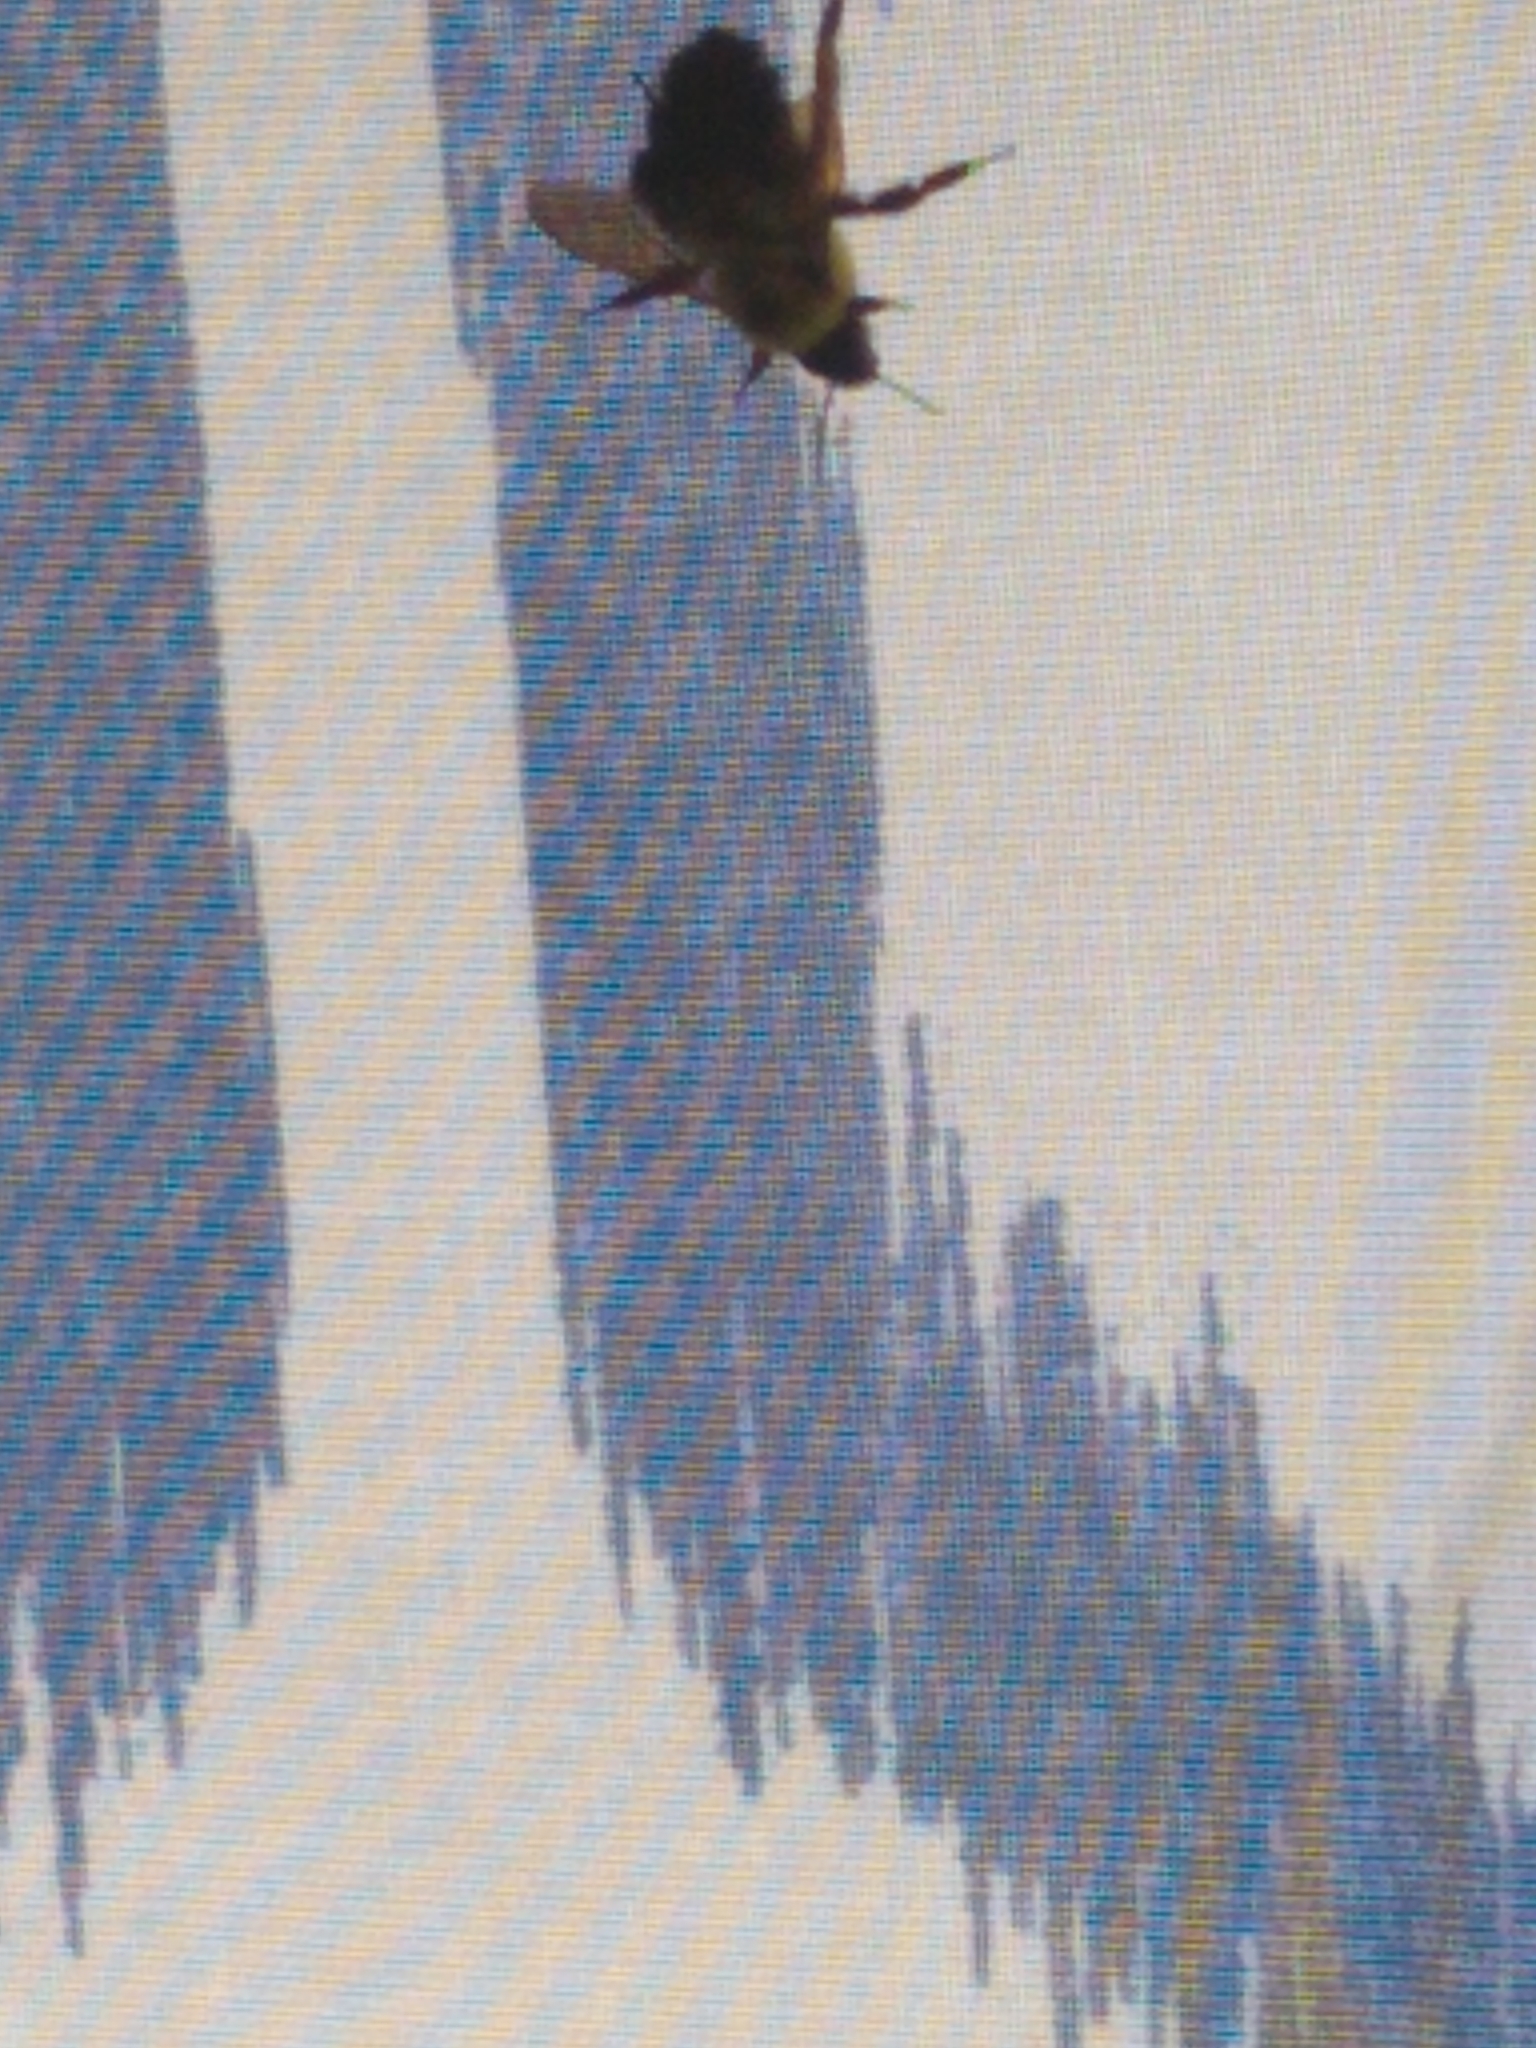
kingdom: Animalia
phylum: Arthropoda
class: Insecta
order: Hymenoptera
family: Apidae
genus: Bombus
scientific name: Bombus bimaculatus
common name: Two-spotted bumble bee
